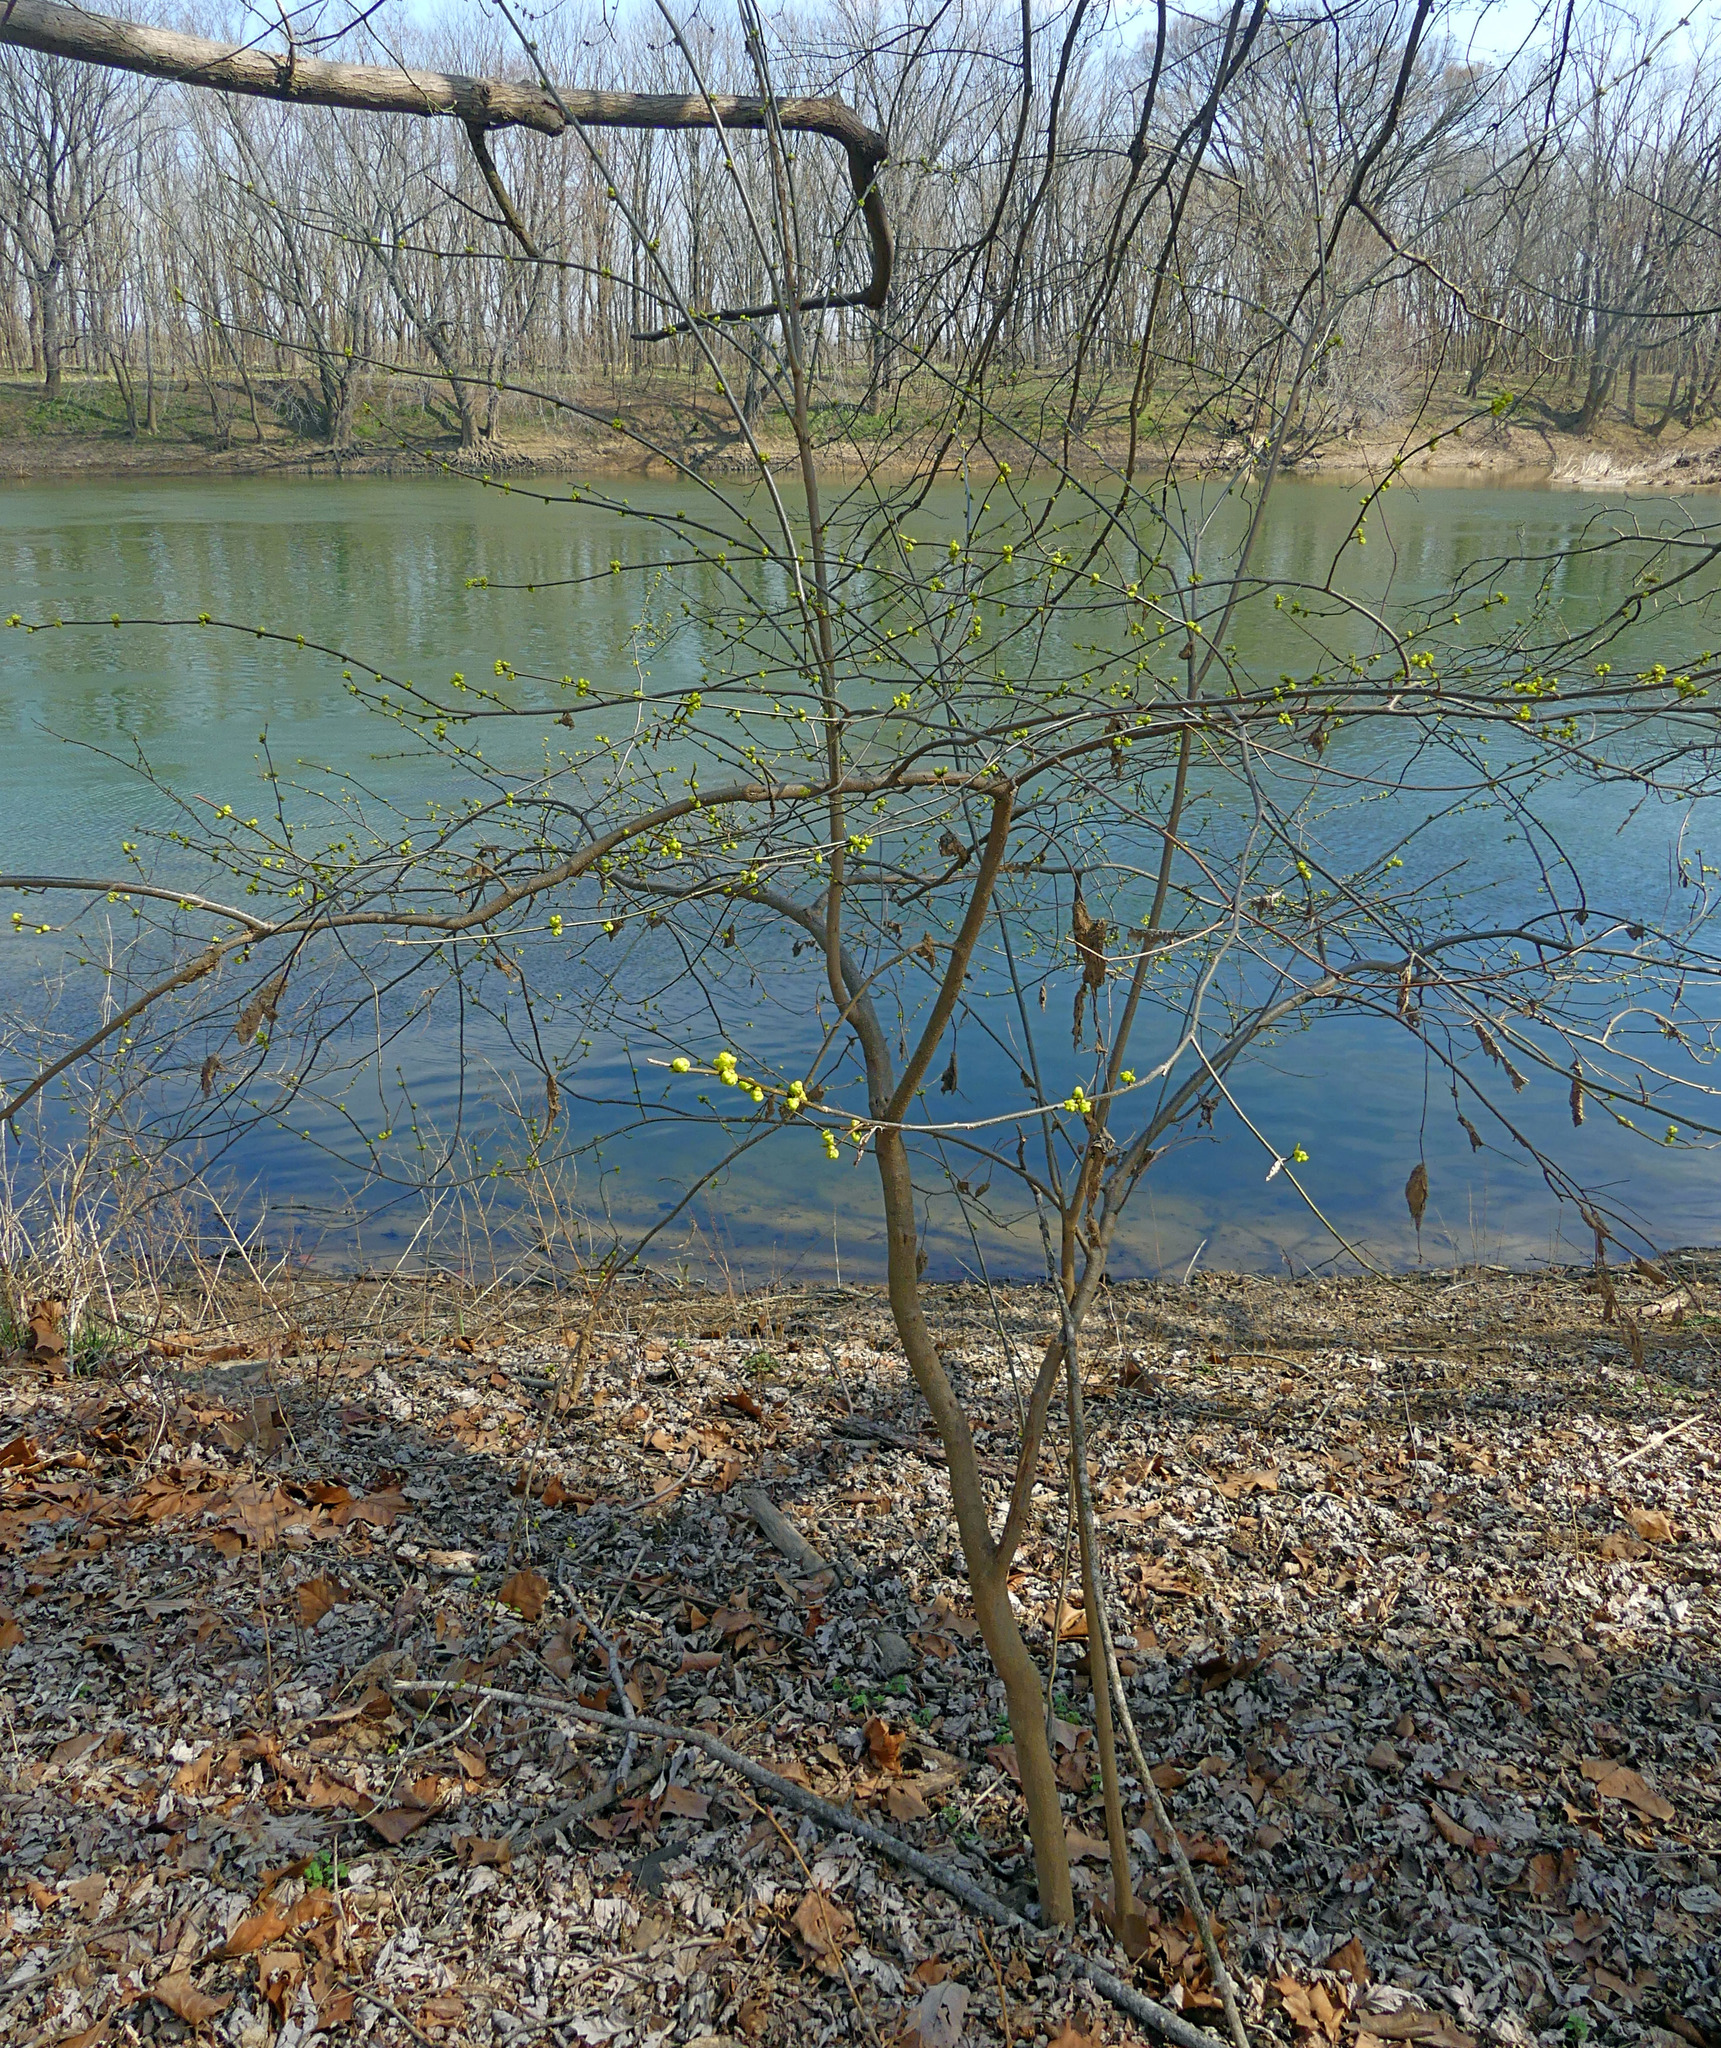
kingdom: Plantae
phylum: Tracheophyta
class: Magnoliopsida
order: Laurales
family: Lauraceae
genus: Lindera
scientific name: Lindera benzoin
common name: Spicebush
